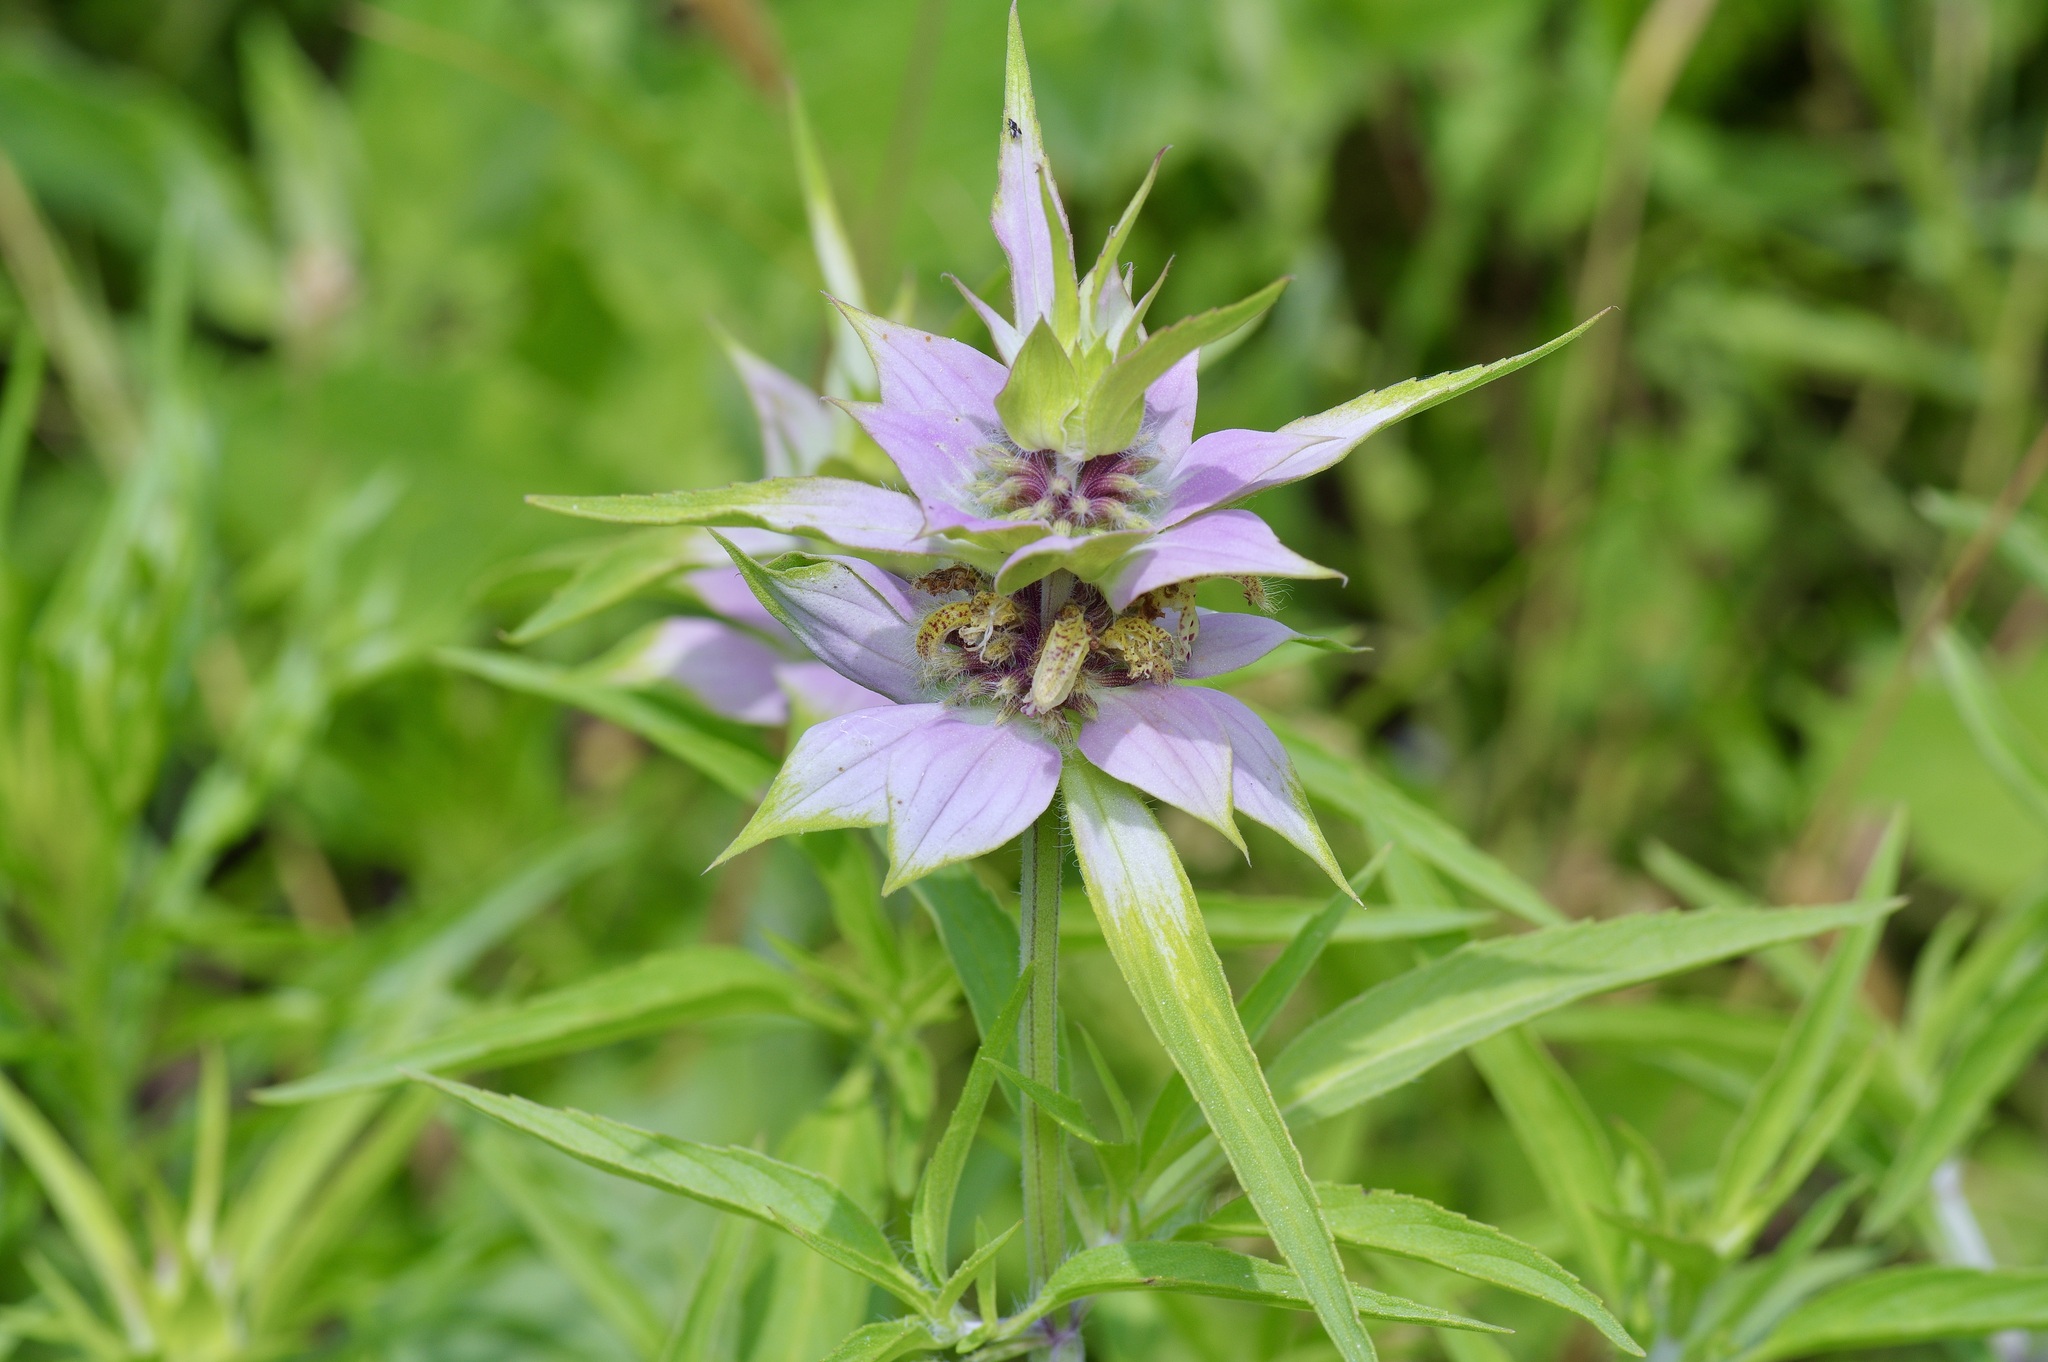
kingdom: Plantae
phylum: Tracheophyta
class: Magnoliopsida
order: Lamiales
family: Lamiaceae
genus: Monarda
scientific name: Monarda punctata
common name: Dotted monarda
